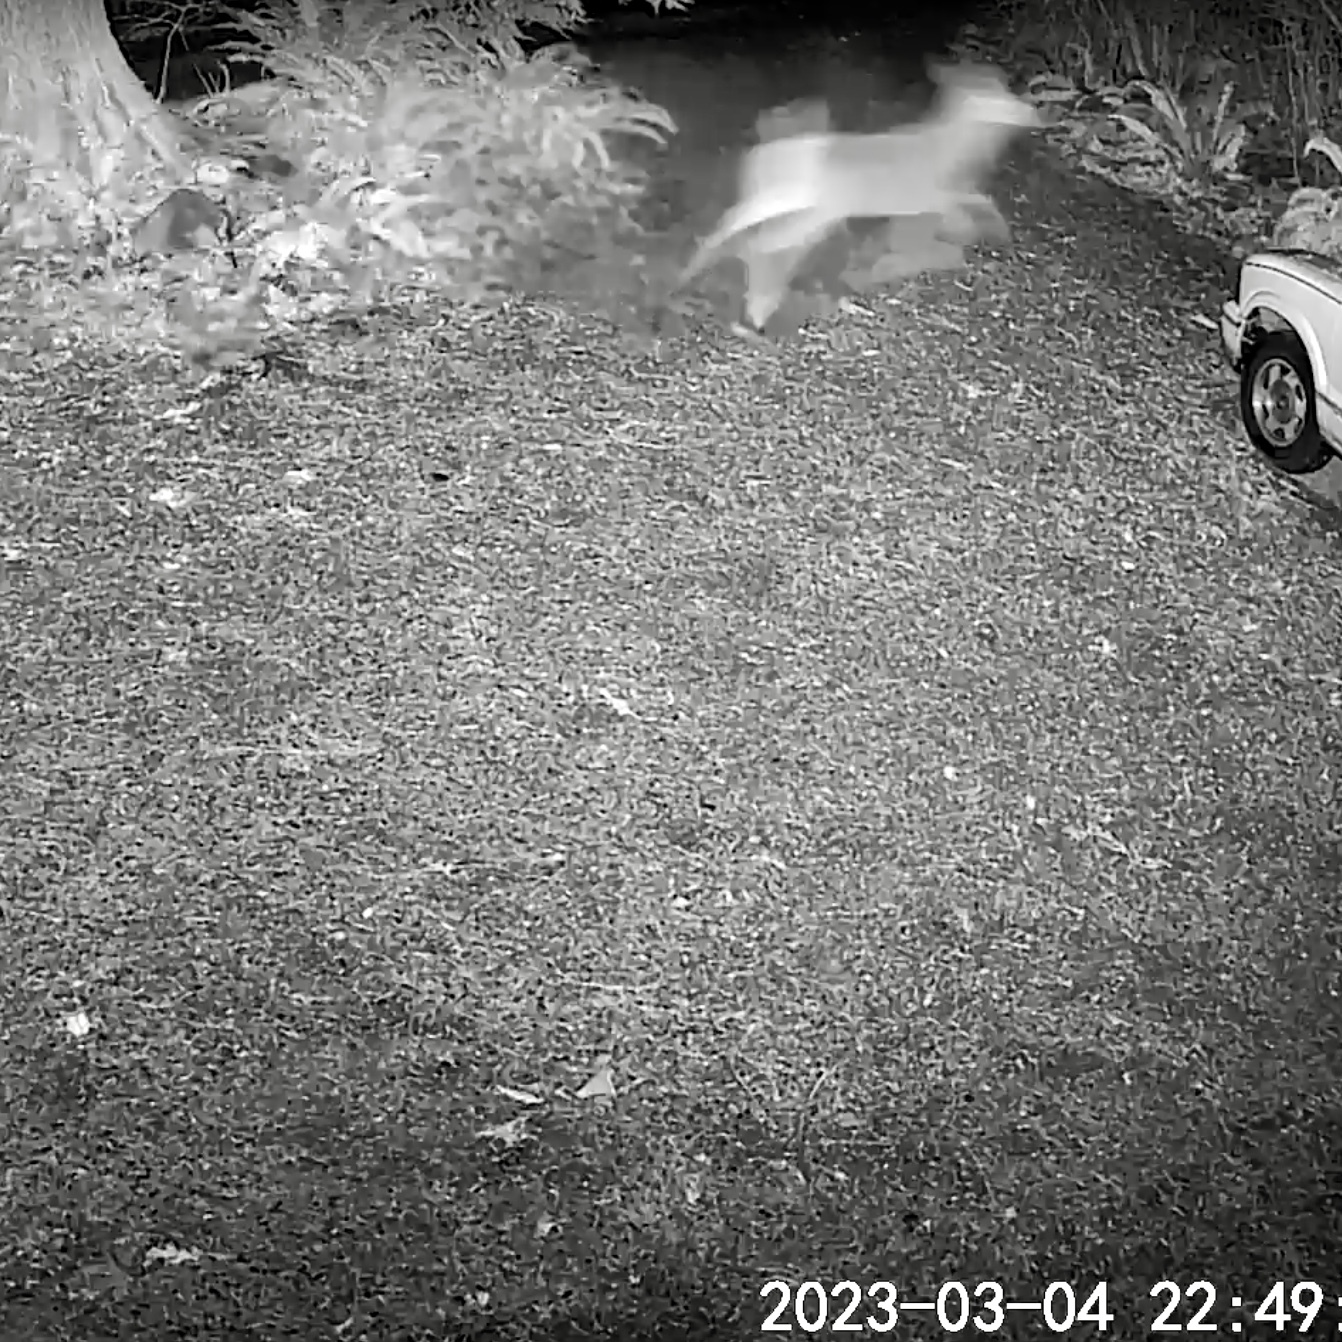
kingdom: Animalia
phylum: Chordata
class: Mammalia
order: Artiodactyla
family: Cervidae
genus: Odocoileus
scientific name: Odocoileus hemionus
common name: Mule deer
